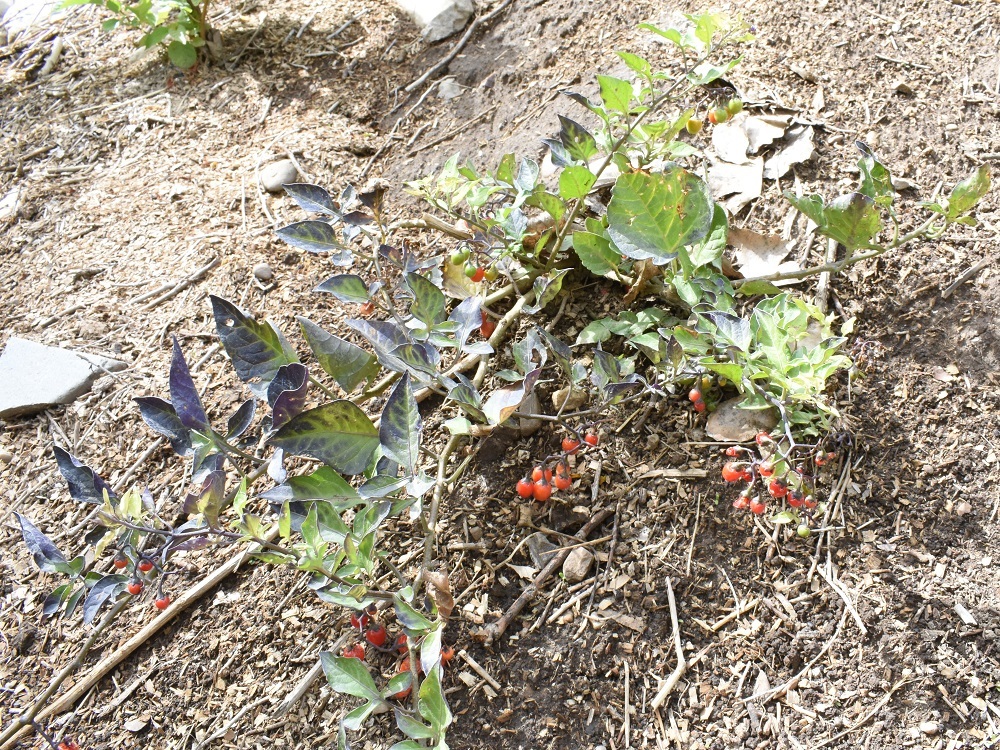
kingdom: Plantae
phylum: Tracheophyta
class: Magnoliopsida
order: Solanales
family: Solanaceae
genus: Solanum
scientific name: Solanum dulcamara
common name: Climbing nightshade
